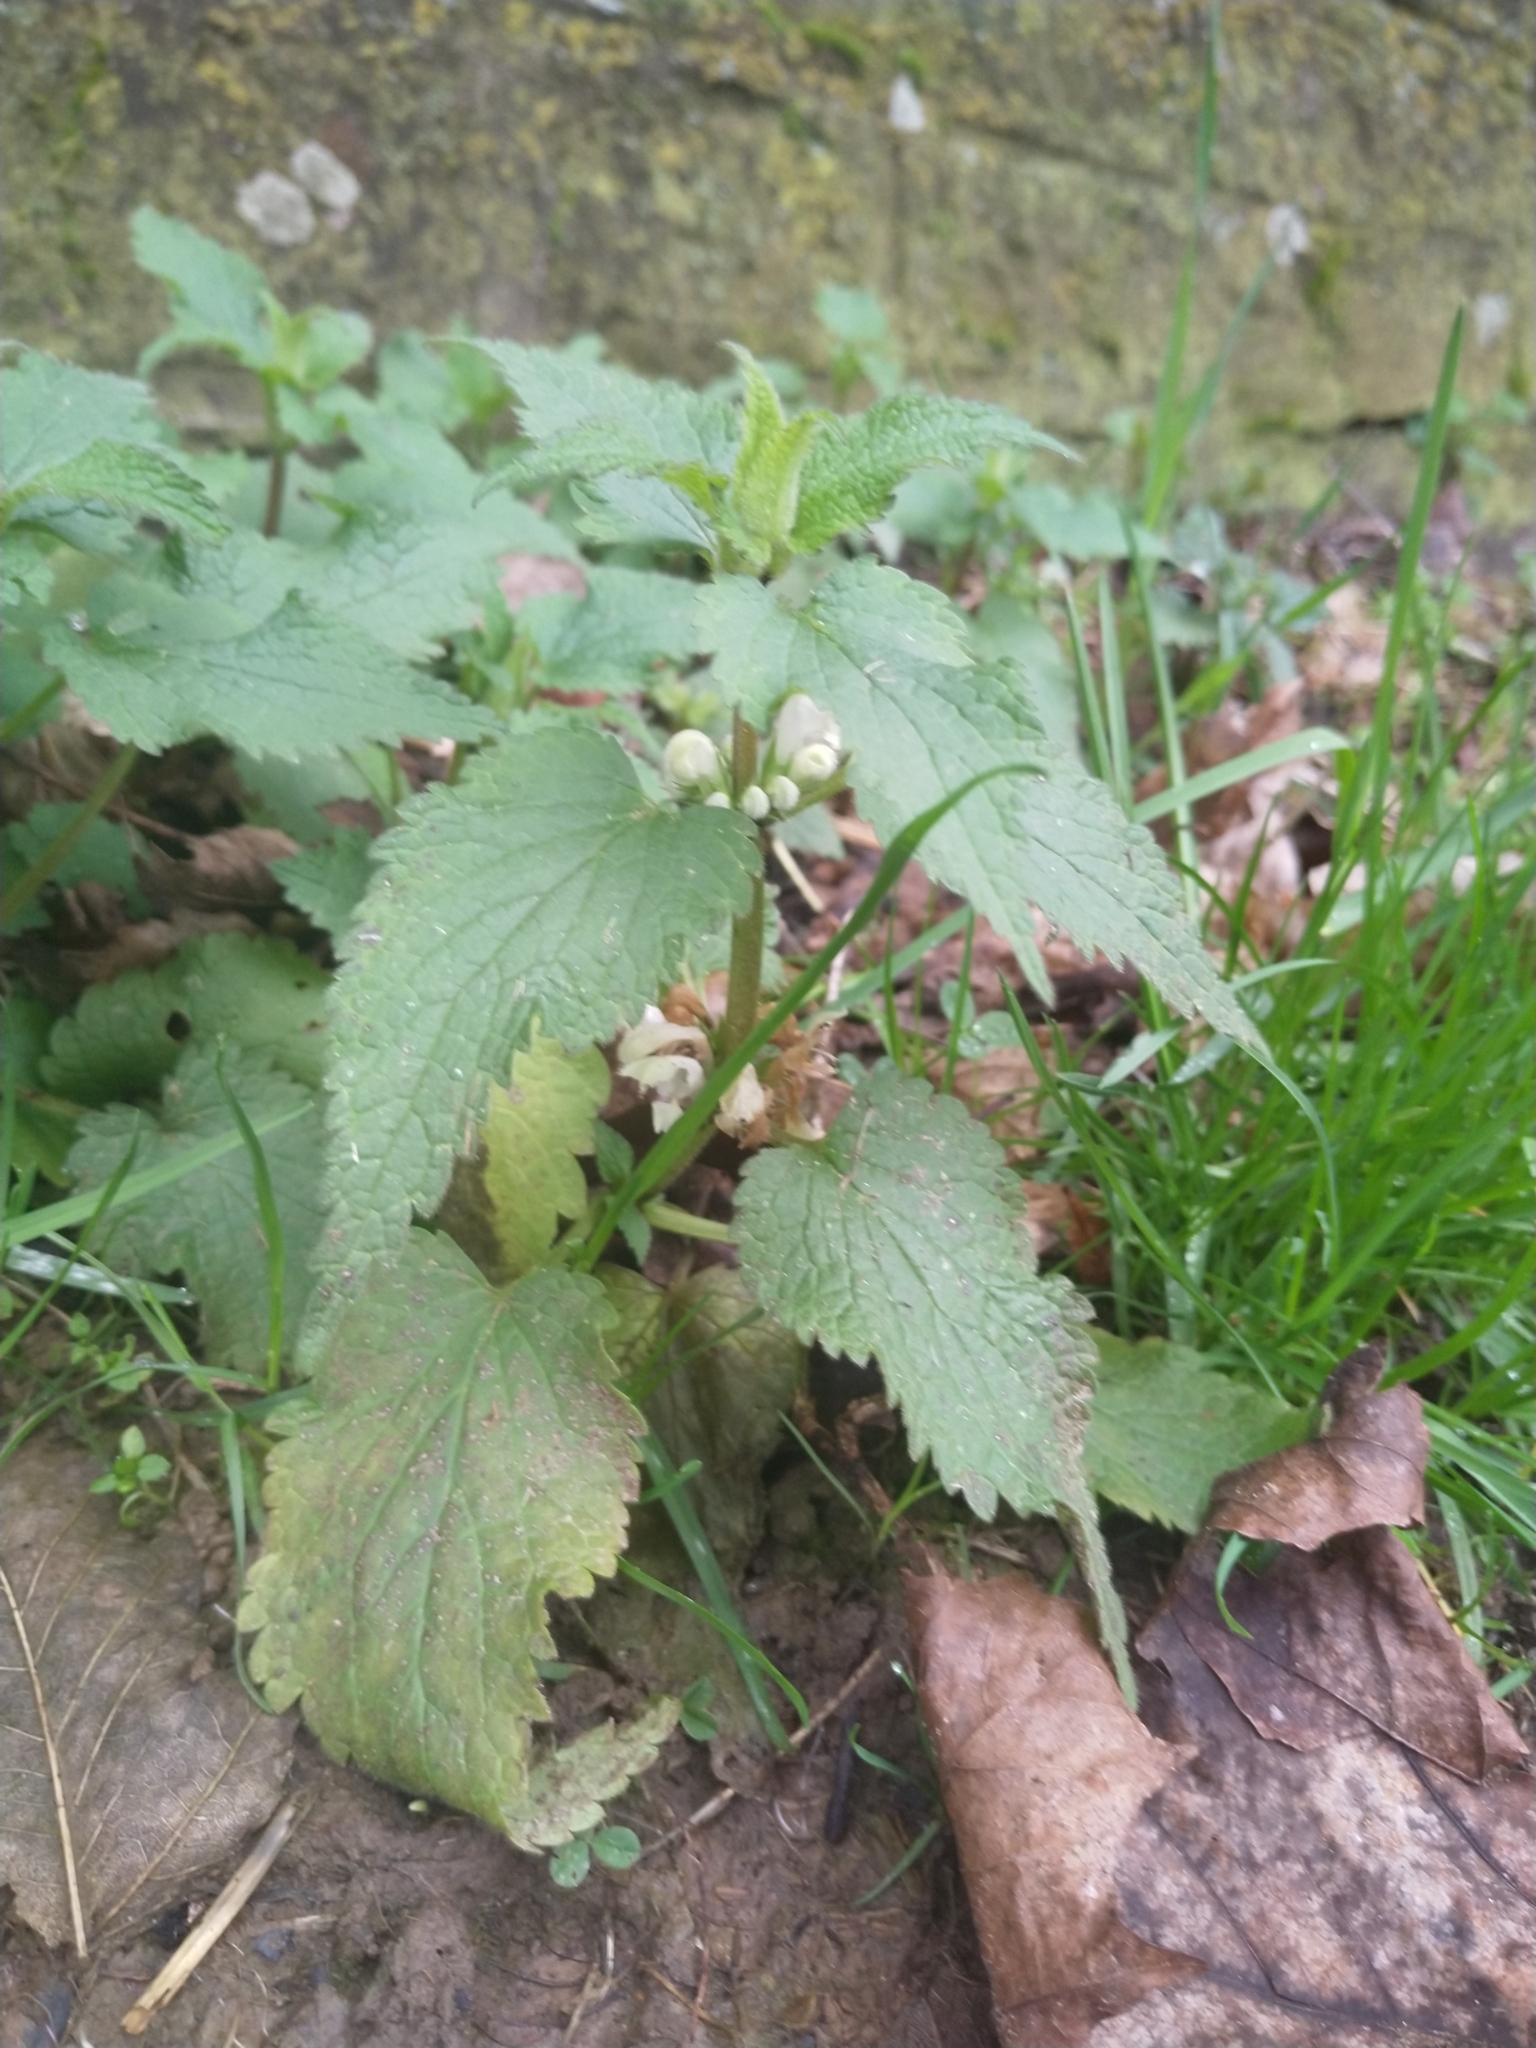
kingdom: Plantae
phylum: Tracheophyta
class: Magnoliopsida
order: Lamiales
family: Lamiaceae
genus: Lamium
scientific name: Lamium album
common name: White dead-nettle
